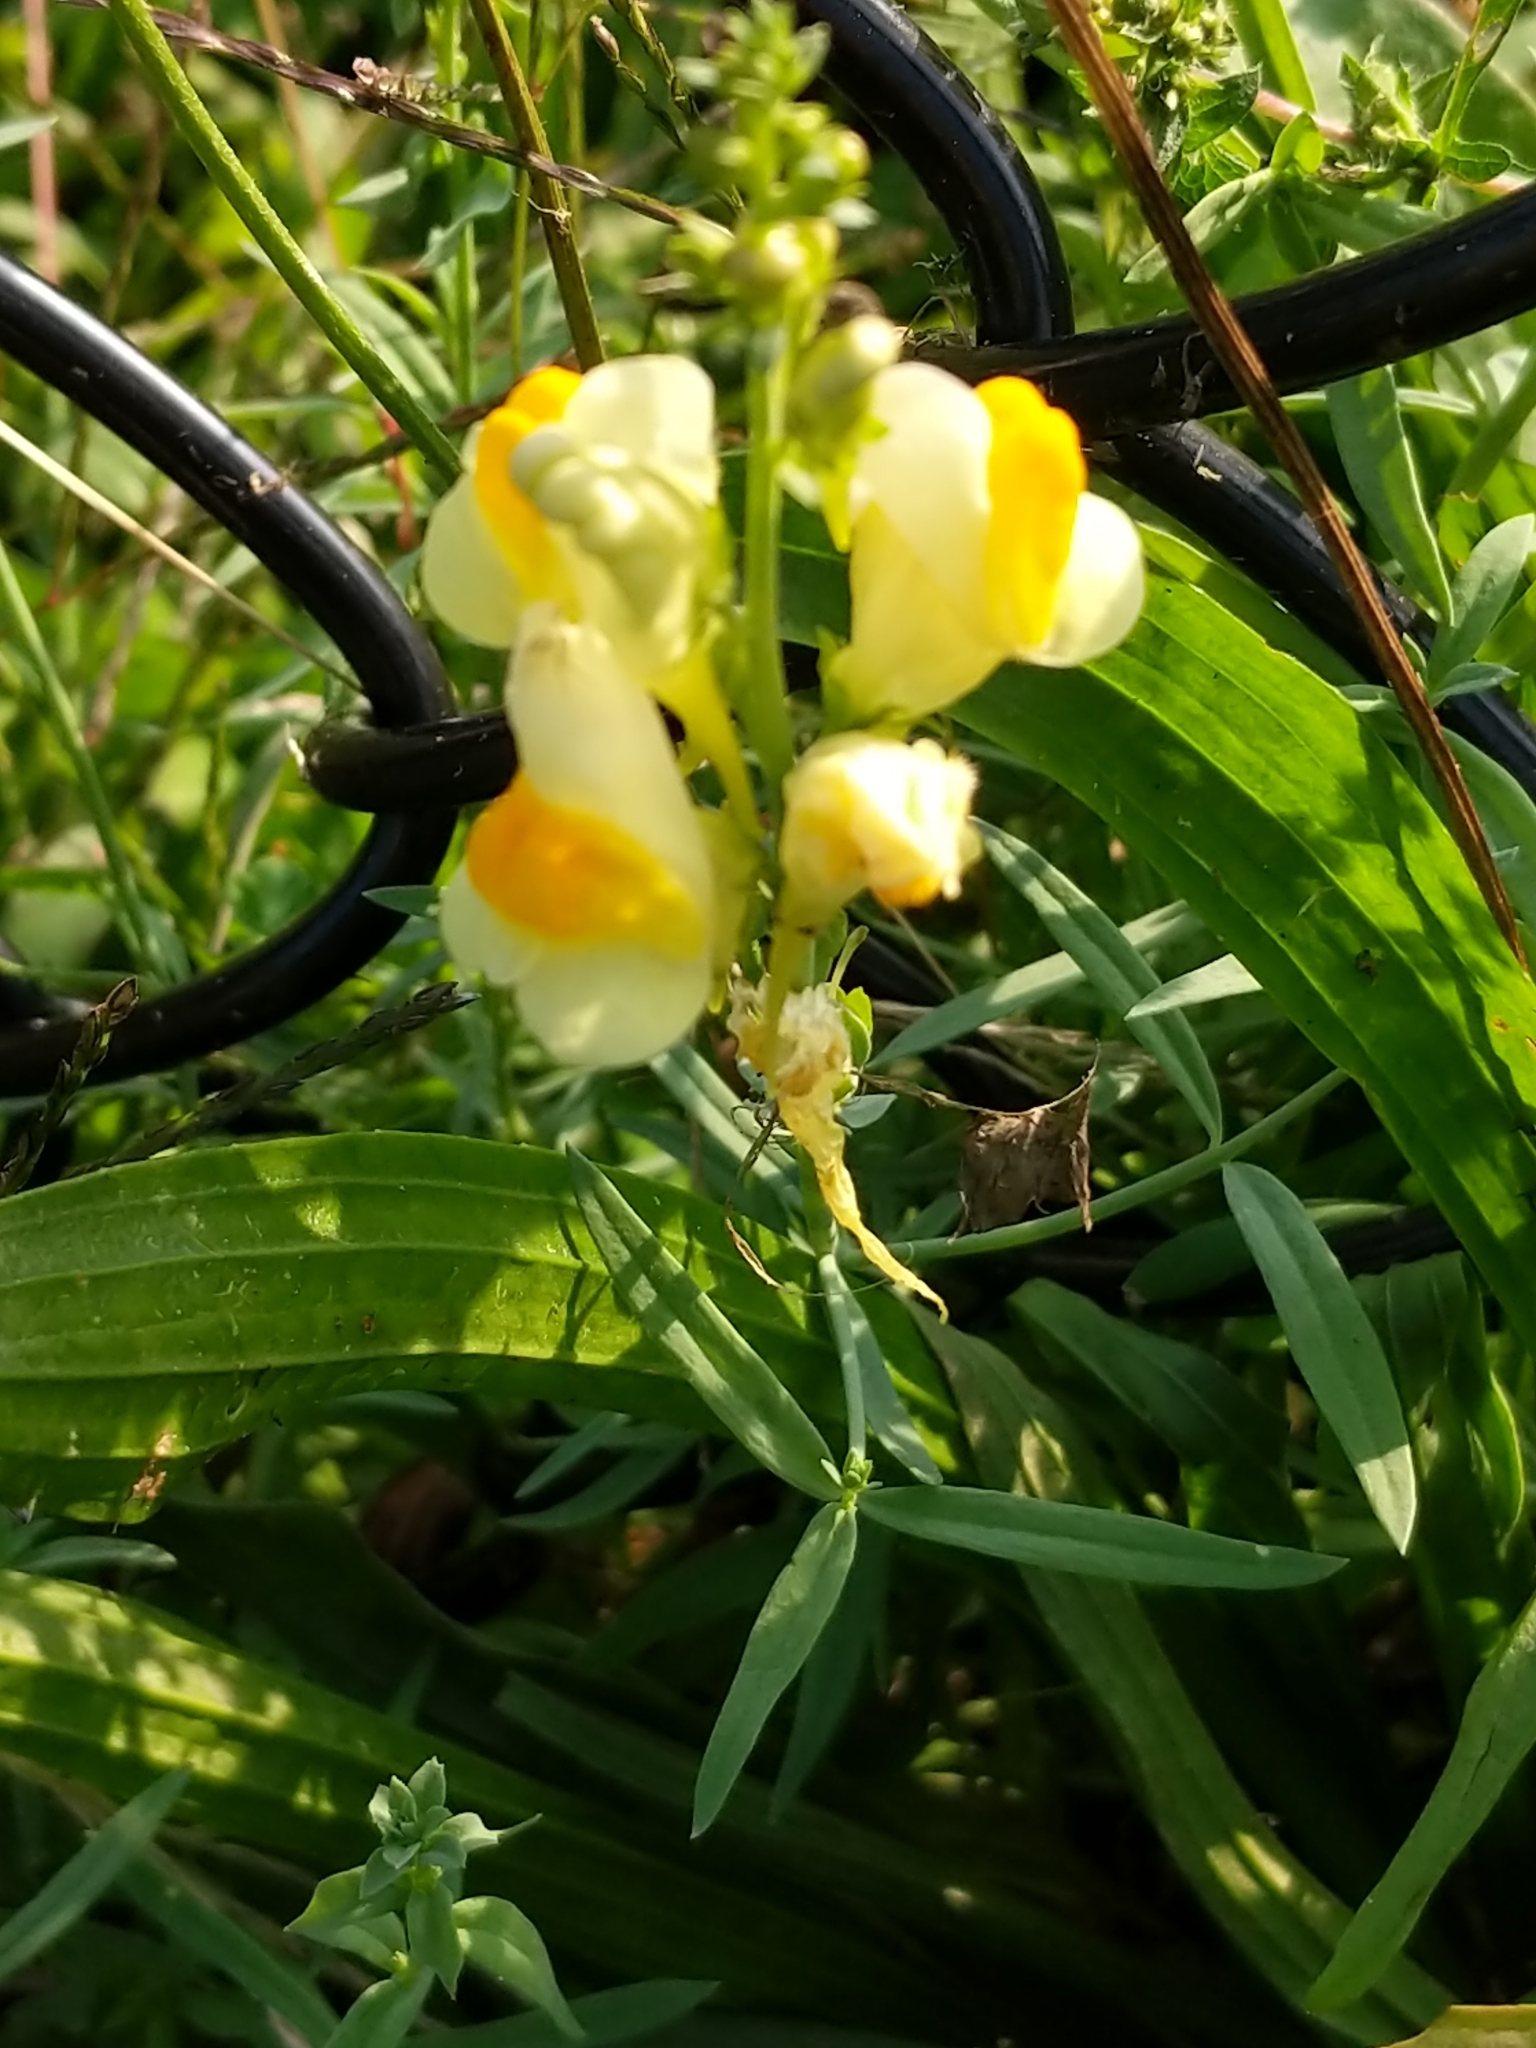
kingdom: Plantae
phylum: Tracheophyta
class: Magnoliopsida
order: Lamiales
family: Plantaginaceae
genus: Linaria
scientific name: Linaria vulgaris
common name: Butter and eggs
